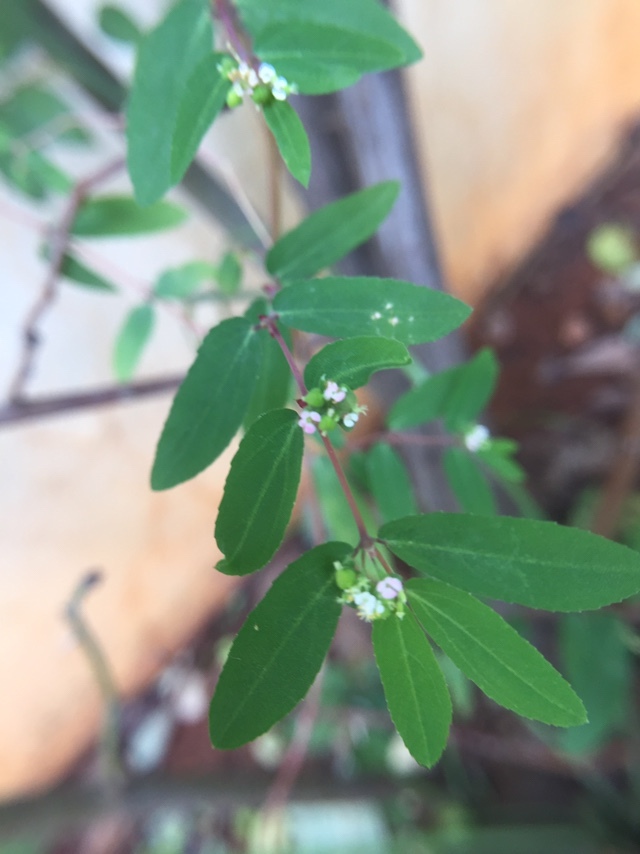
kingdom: Plantae
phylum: Tracheophyta
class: Magnoliopsida
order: Malpighiales
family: Euphorbiaceae
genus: Euphorbia
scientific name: Euphorbia hypericifolia
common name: Graceful sandmat
